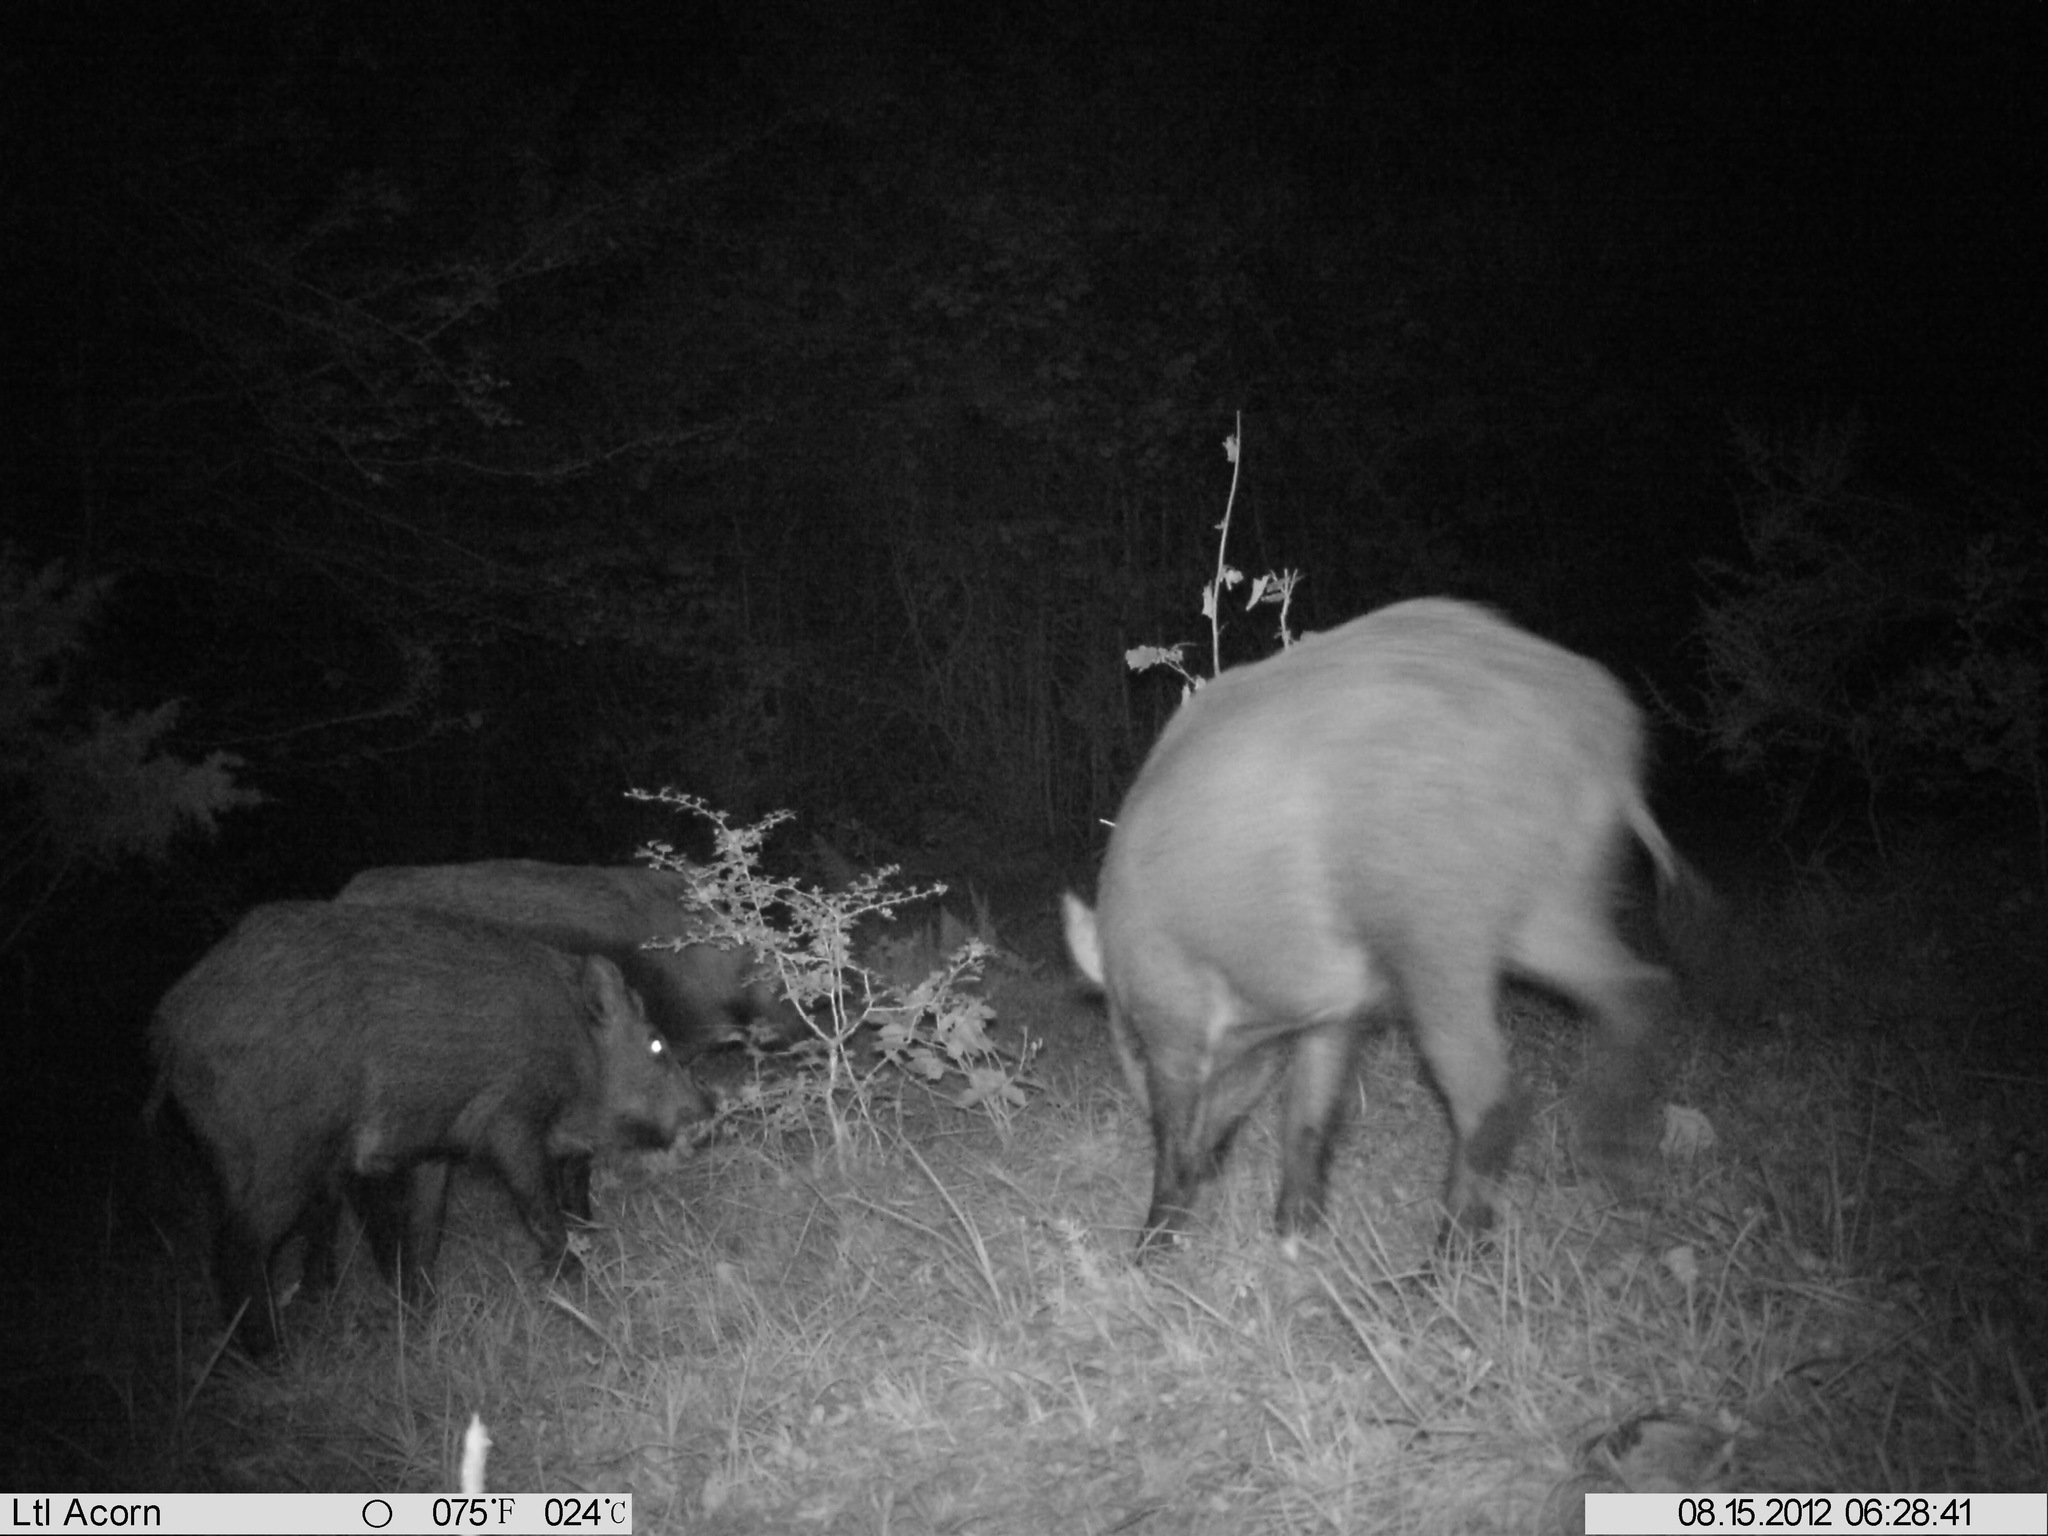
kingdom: Animalia
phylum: Chordata
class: Mammalia
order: Artiodactyla
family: Suidae
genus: Sus
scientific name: Sus scrofa
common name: Wild boar
